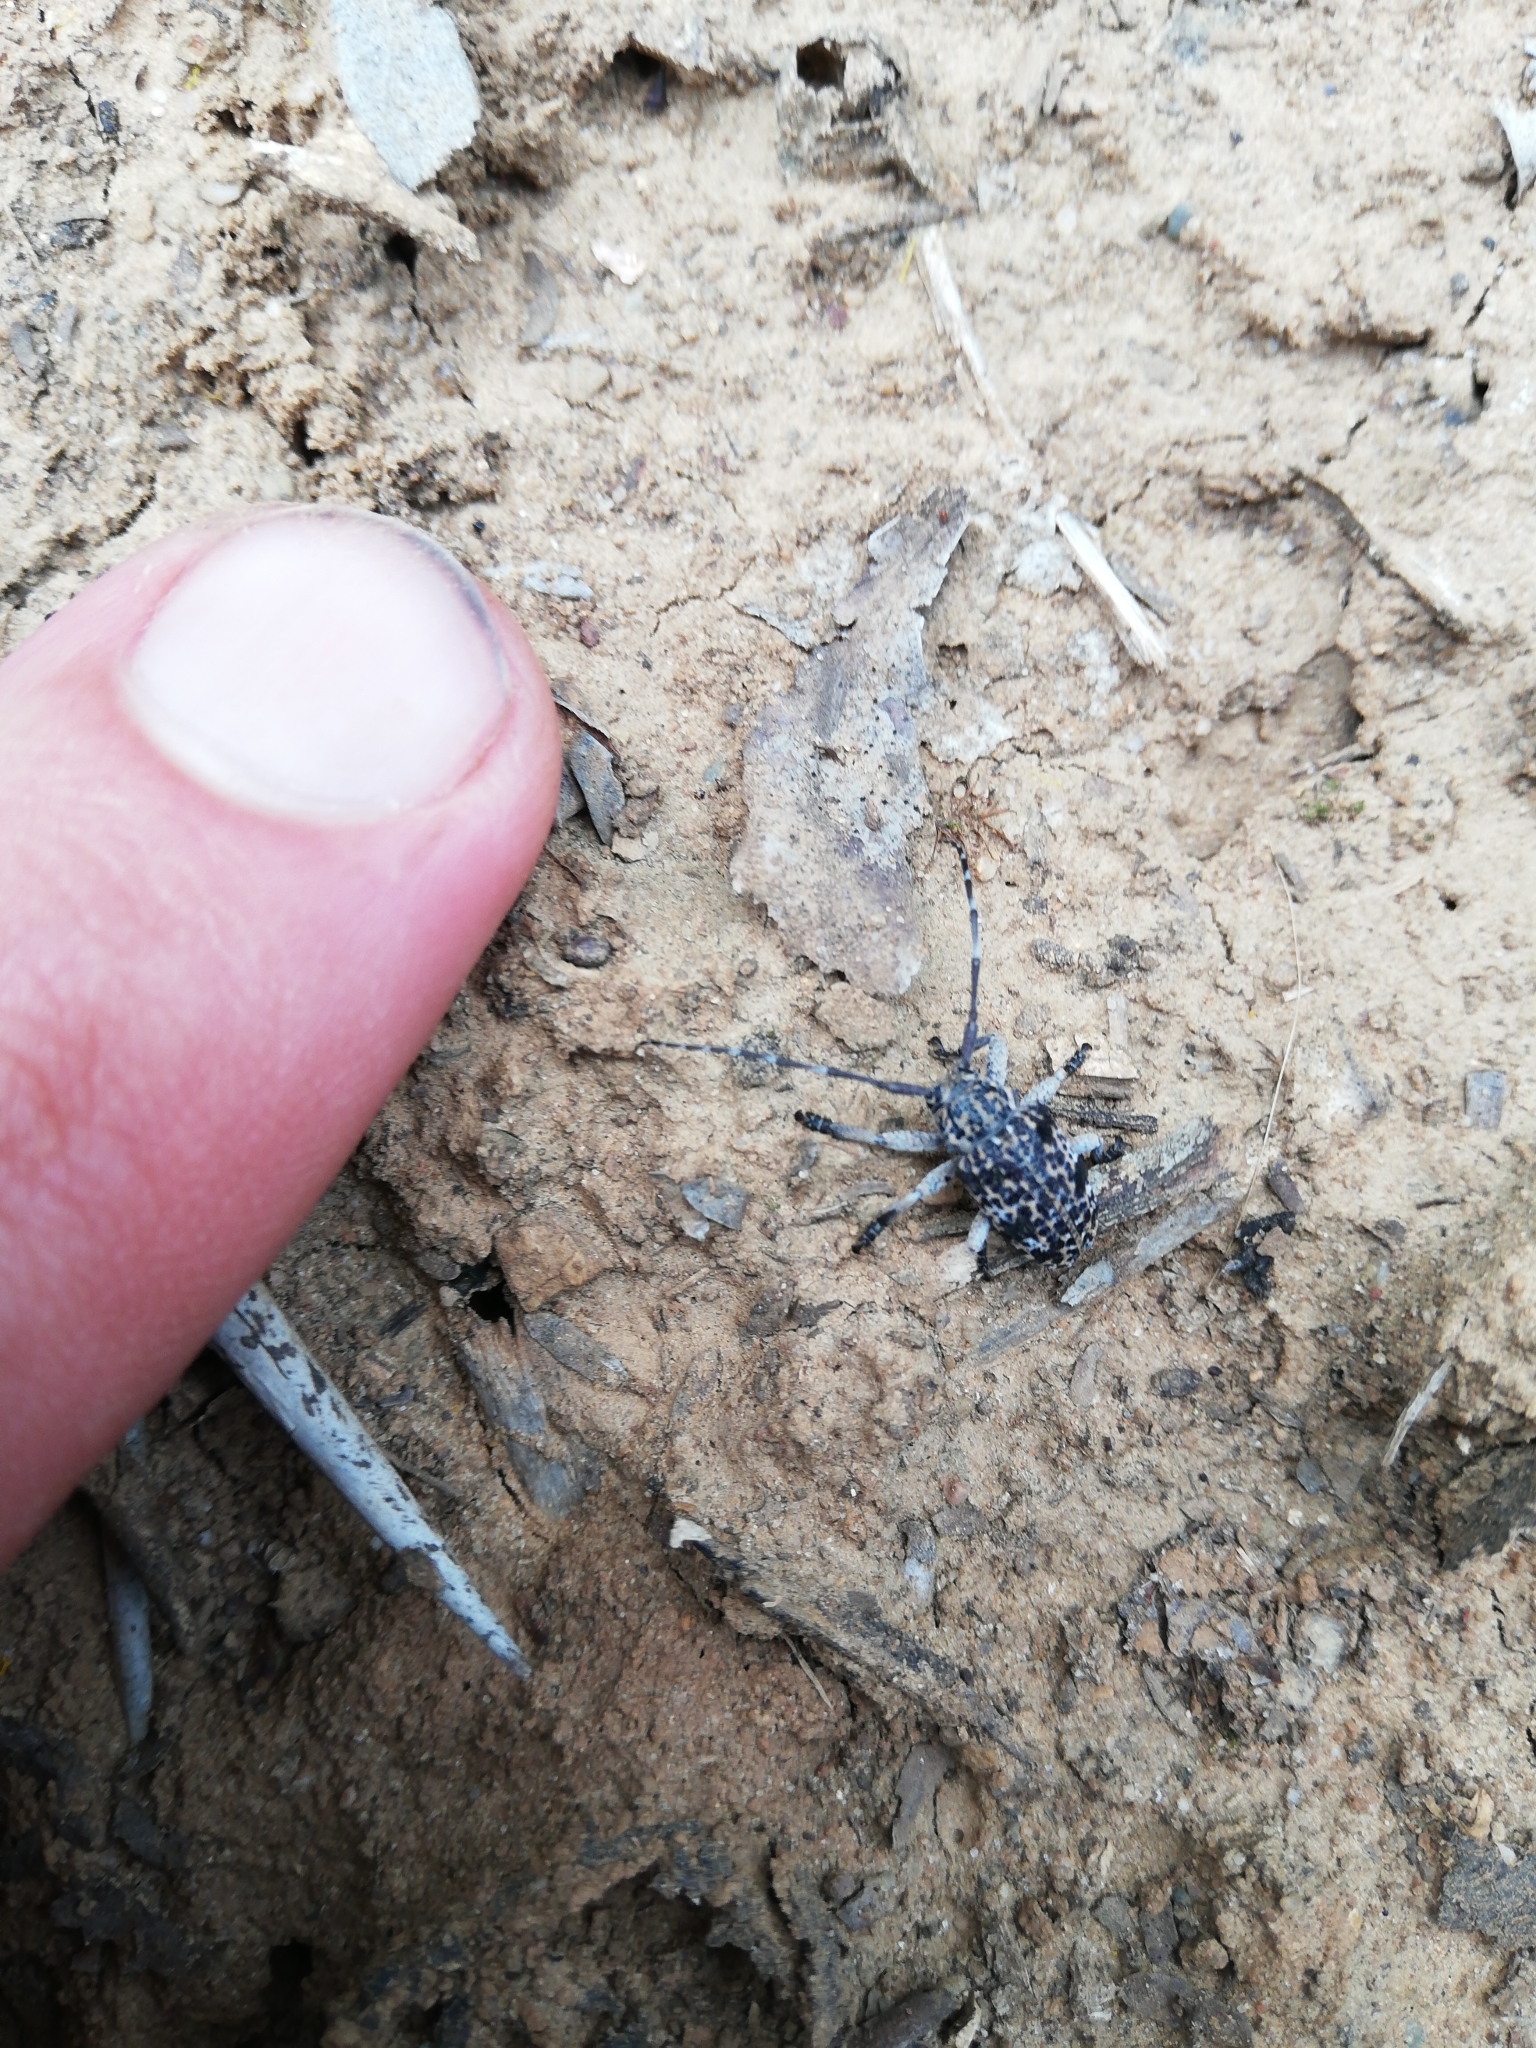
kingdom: Animalia
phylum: Arthropoda
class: Insecta
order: Coleoptera
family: Cerambycidae
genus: Dichostates
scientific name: Dichostates lignarius
